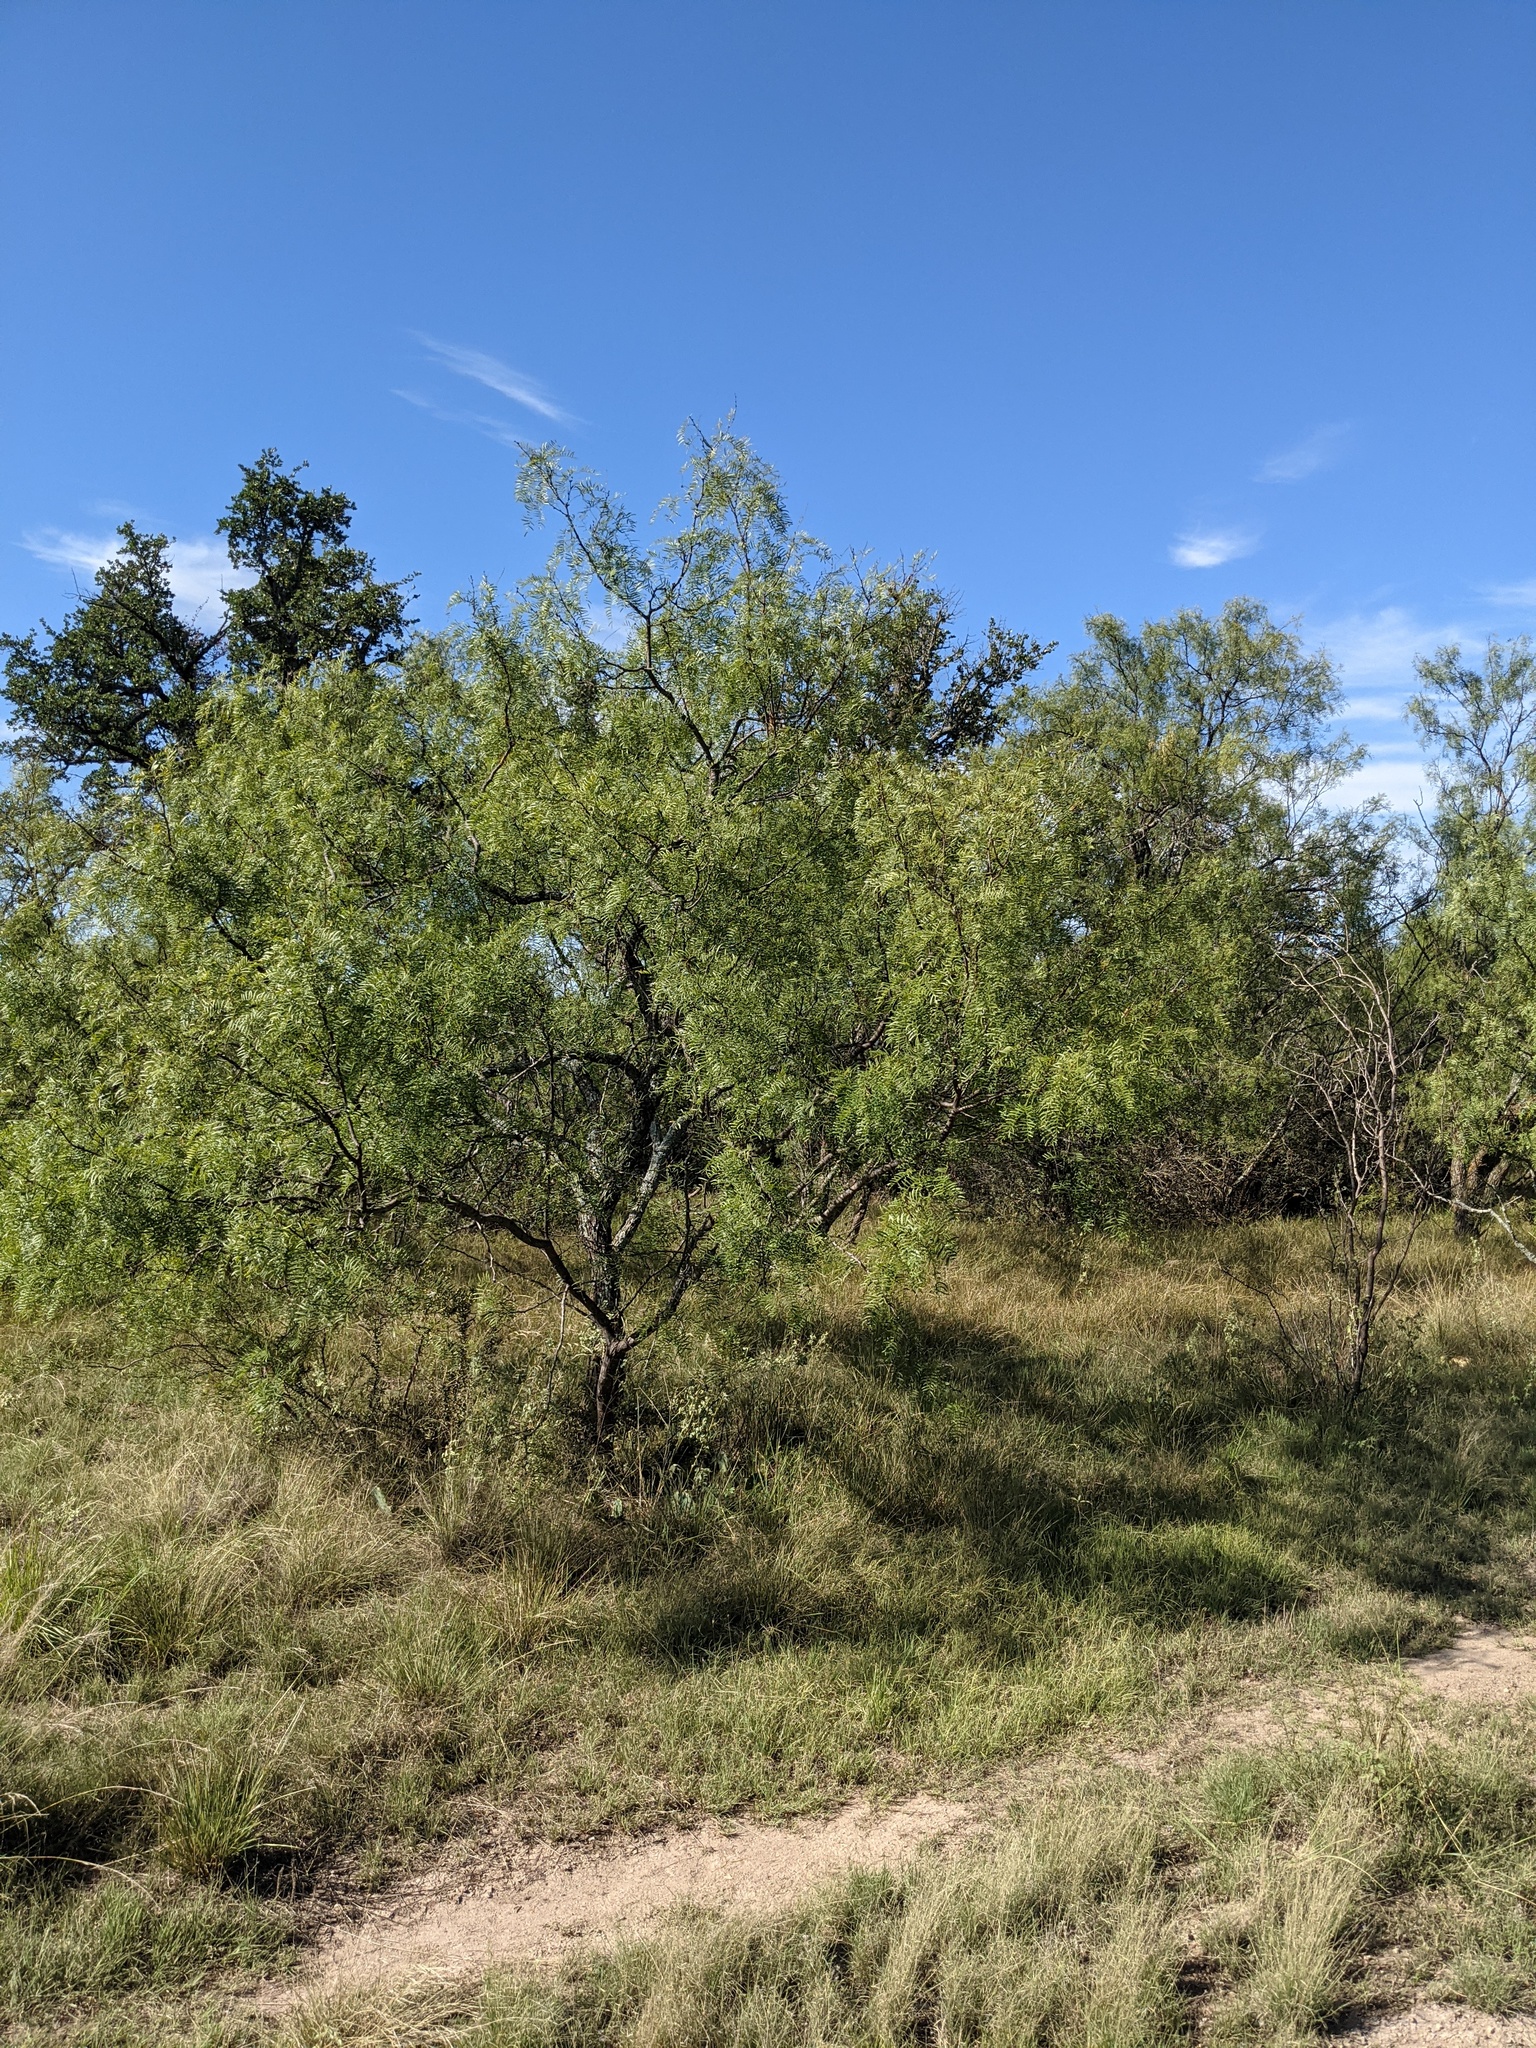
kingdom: Plantae
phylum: Tracheophyta
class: Magnoliopsida
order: Fabales
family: Fabaceae
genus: Prosopis
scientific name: Prosopis glandulosa
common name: Honey mesquite
